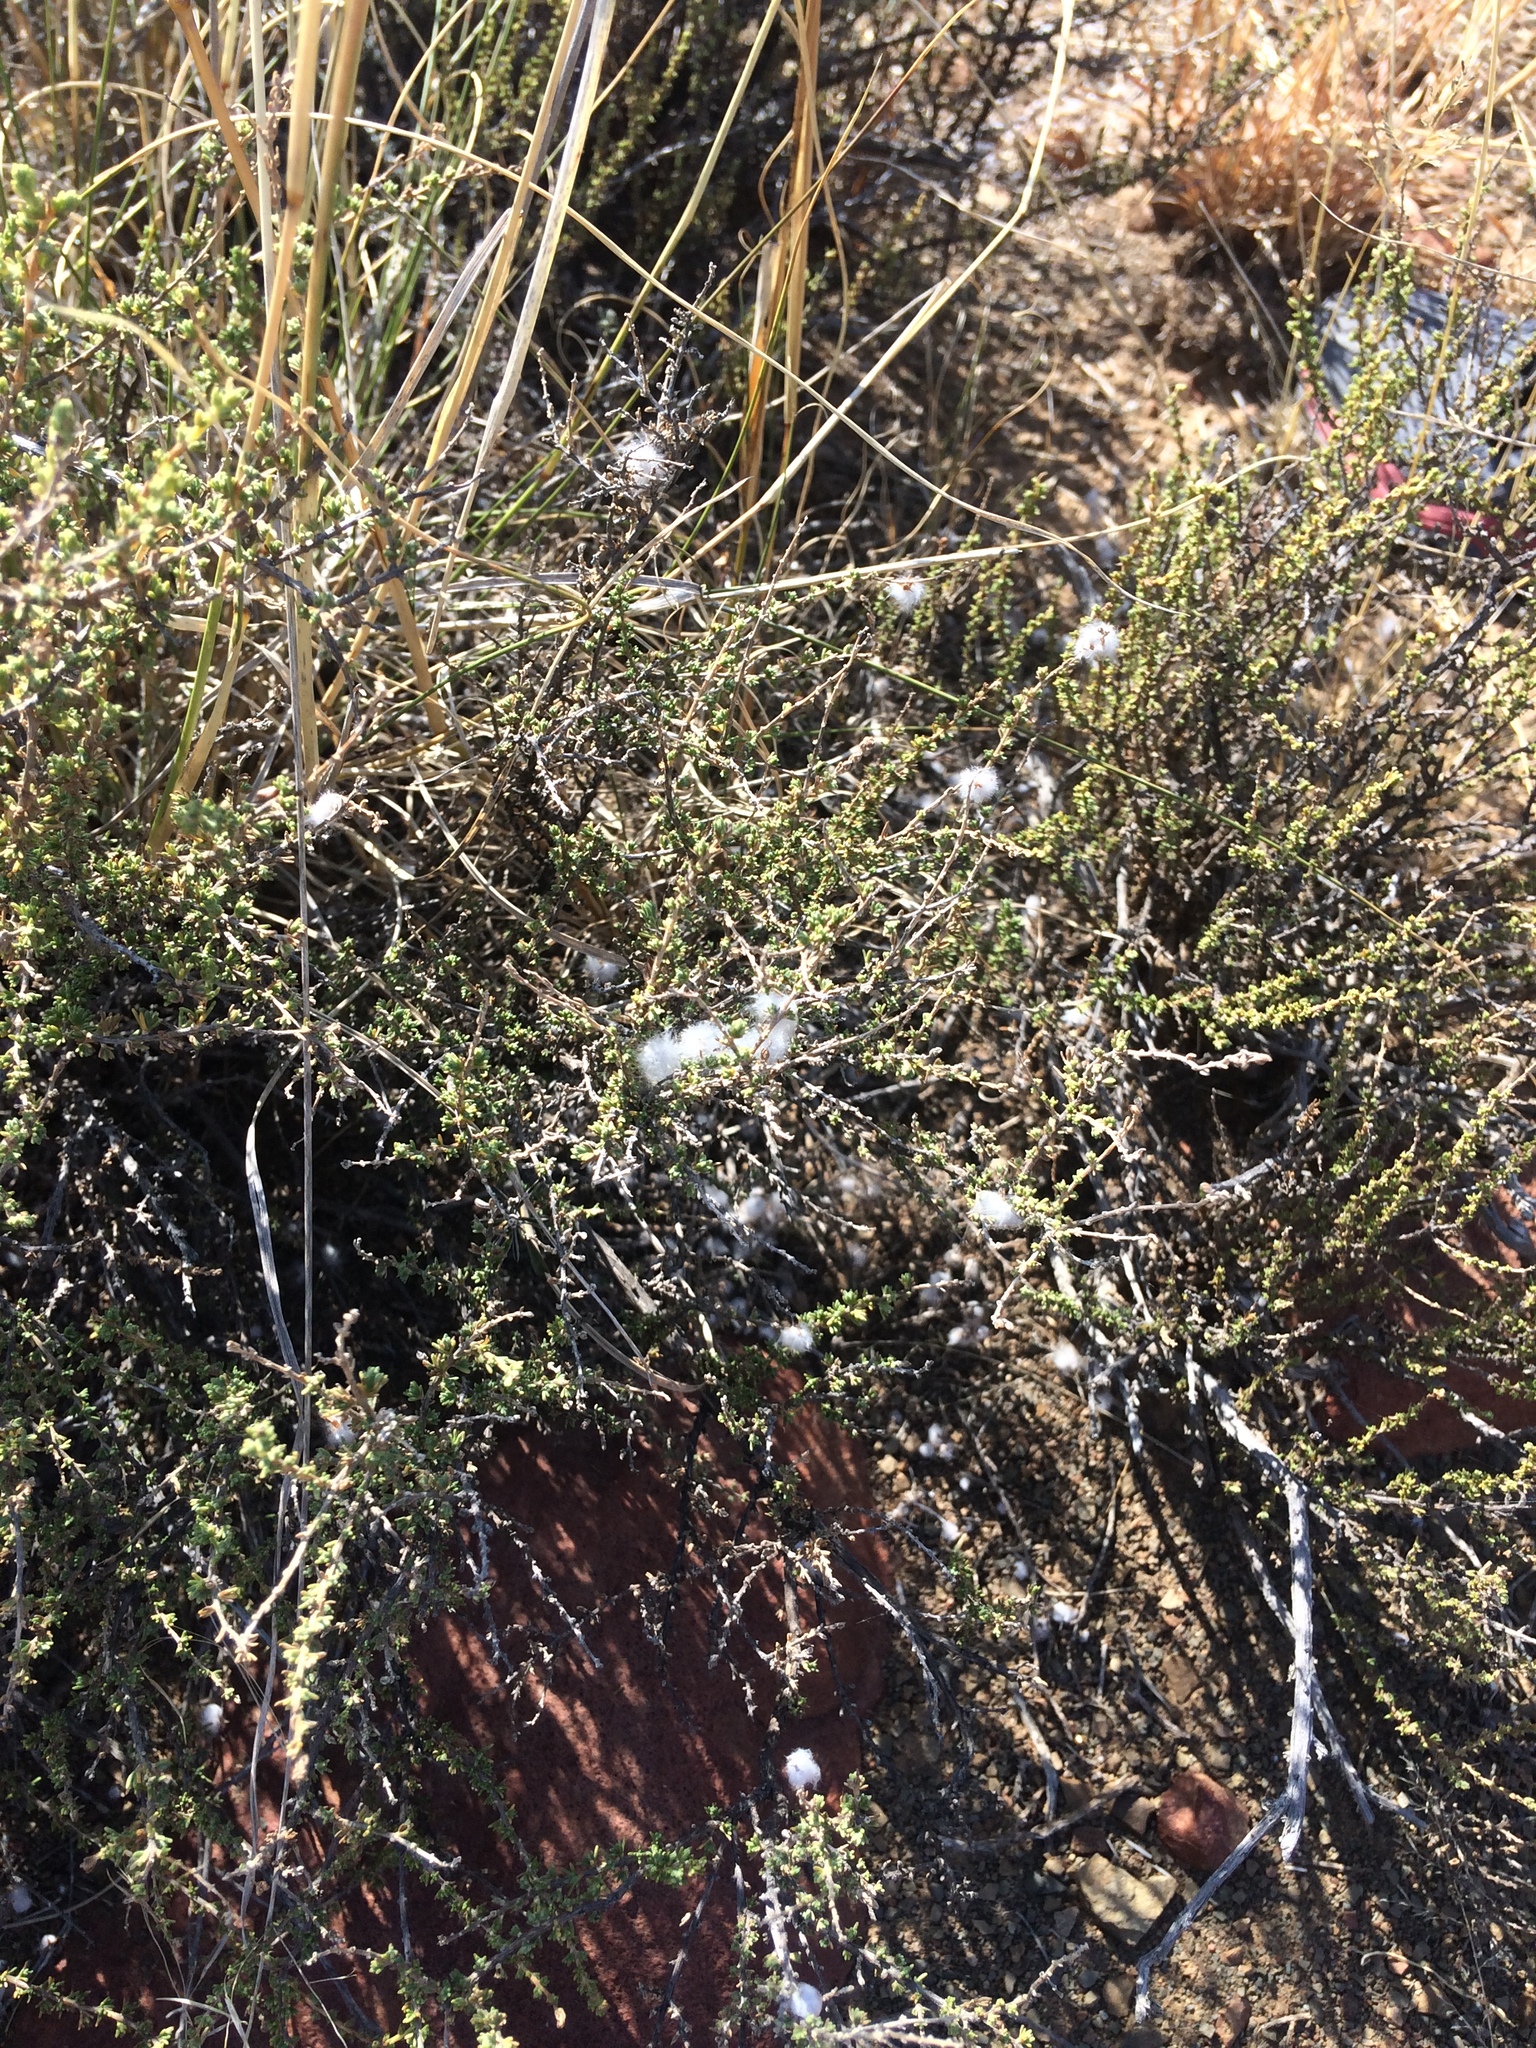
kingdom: Plantae
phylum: Tracheophyta
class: Magnoliopsida
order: Asterales
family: Asteraceae
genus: Eriocephalus
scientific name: Eriocephalus ericoides
